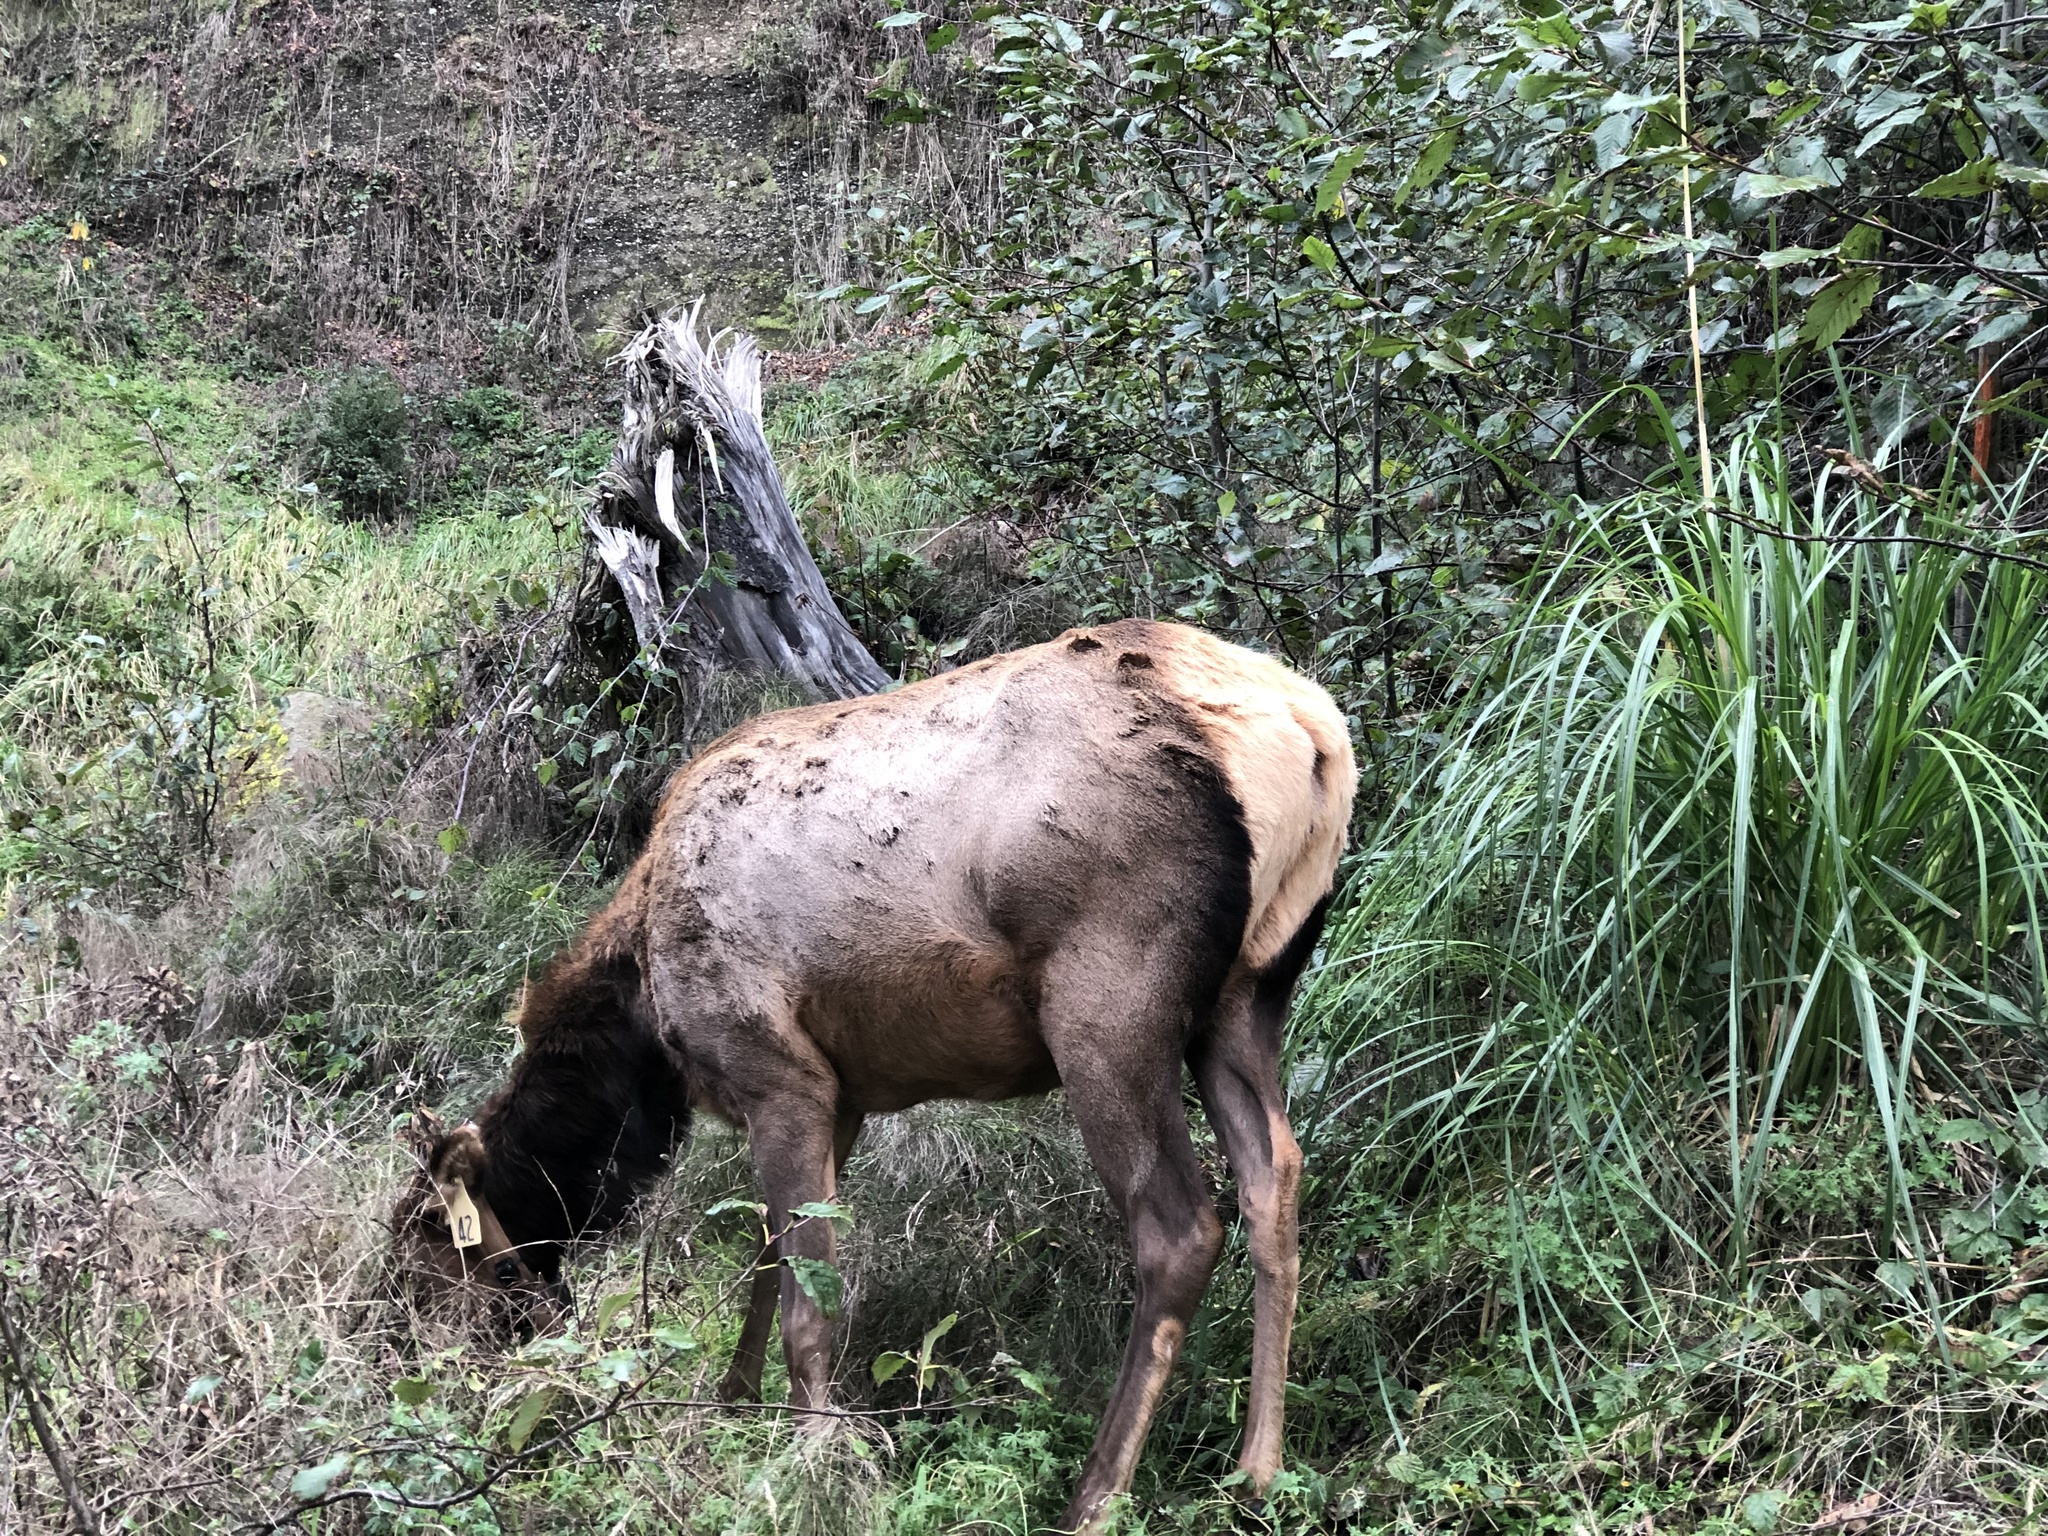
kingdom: Animalia
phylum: Chordata
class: Mammalia
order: Artiodactyla
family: Cervidae
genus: Cervus
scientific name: Cervus elaphus
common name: Red deer
